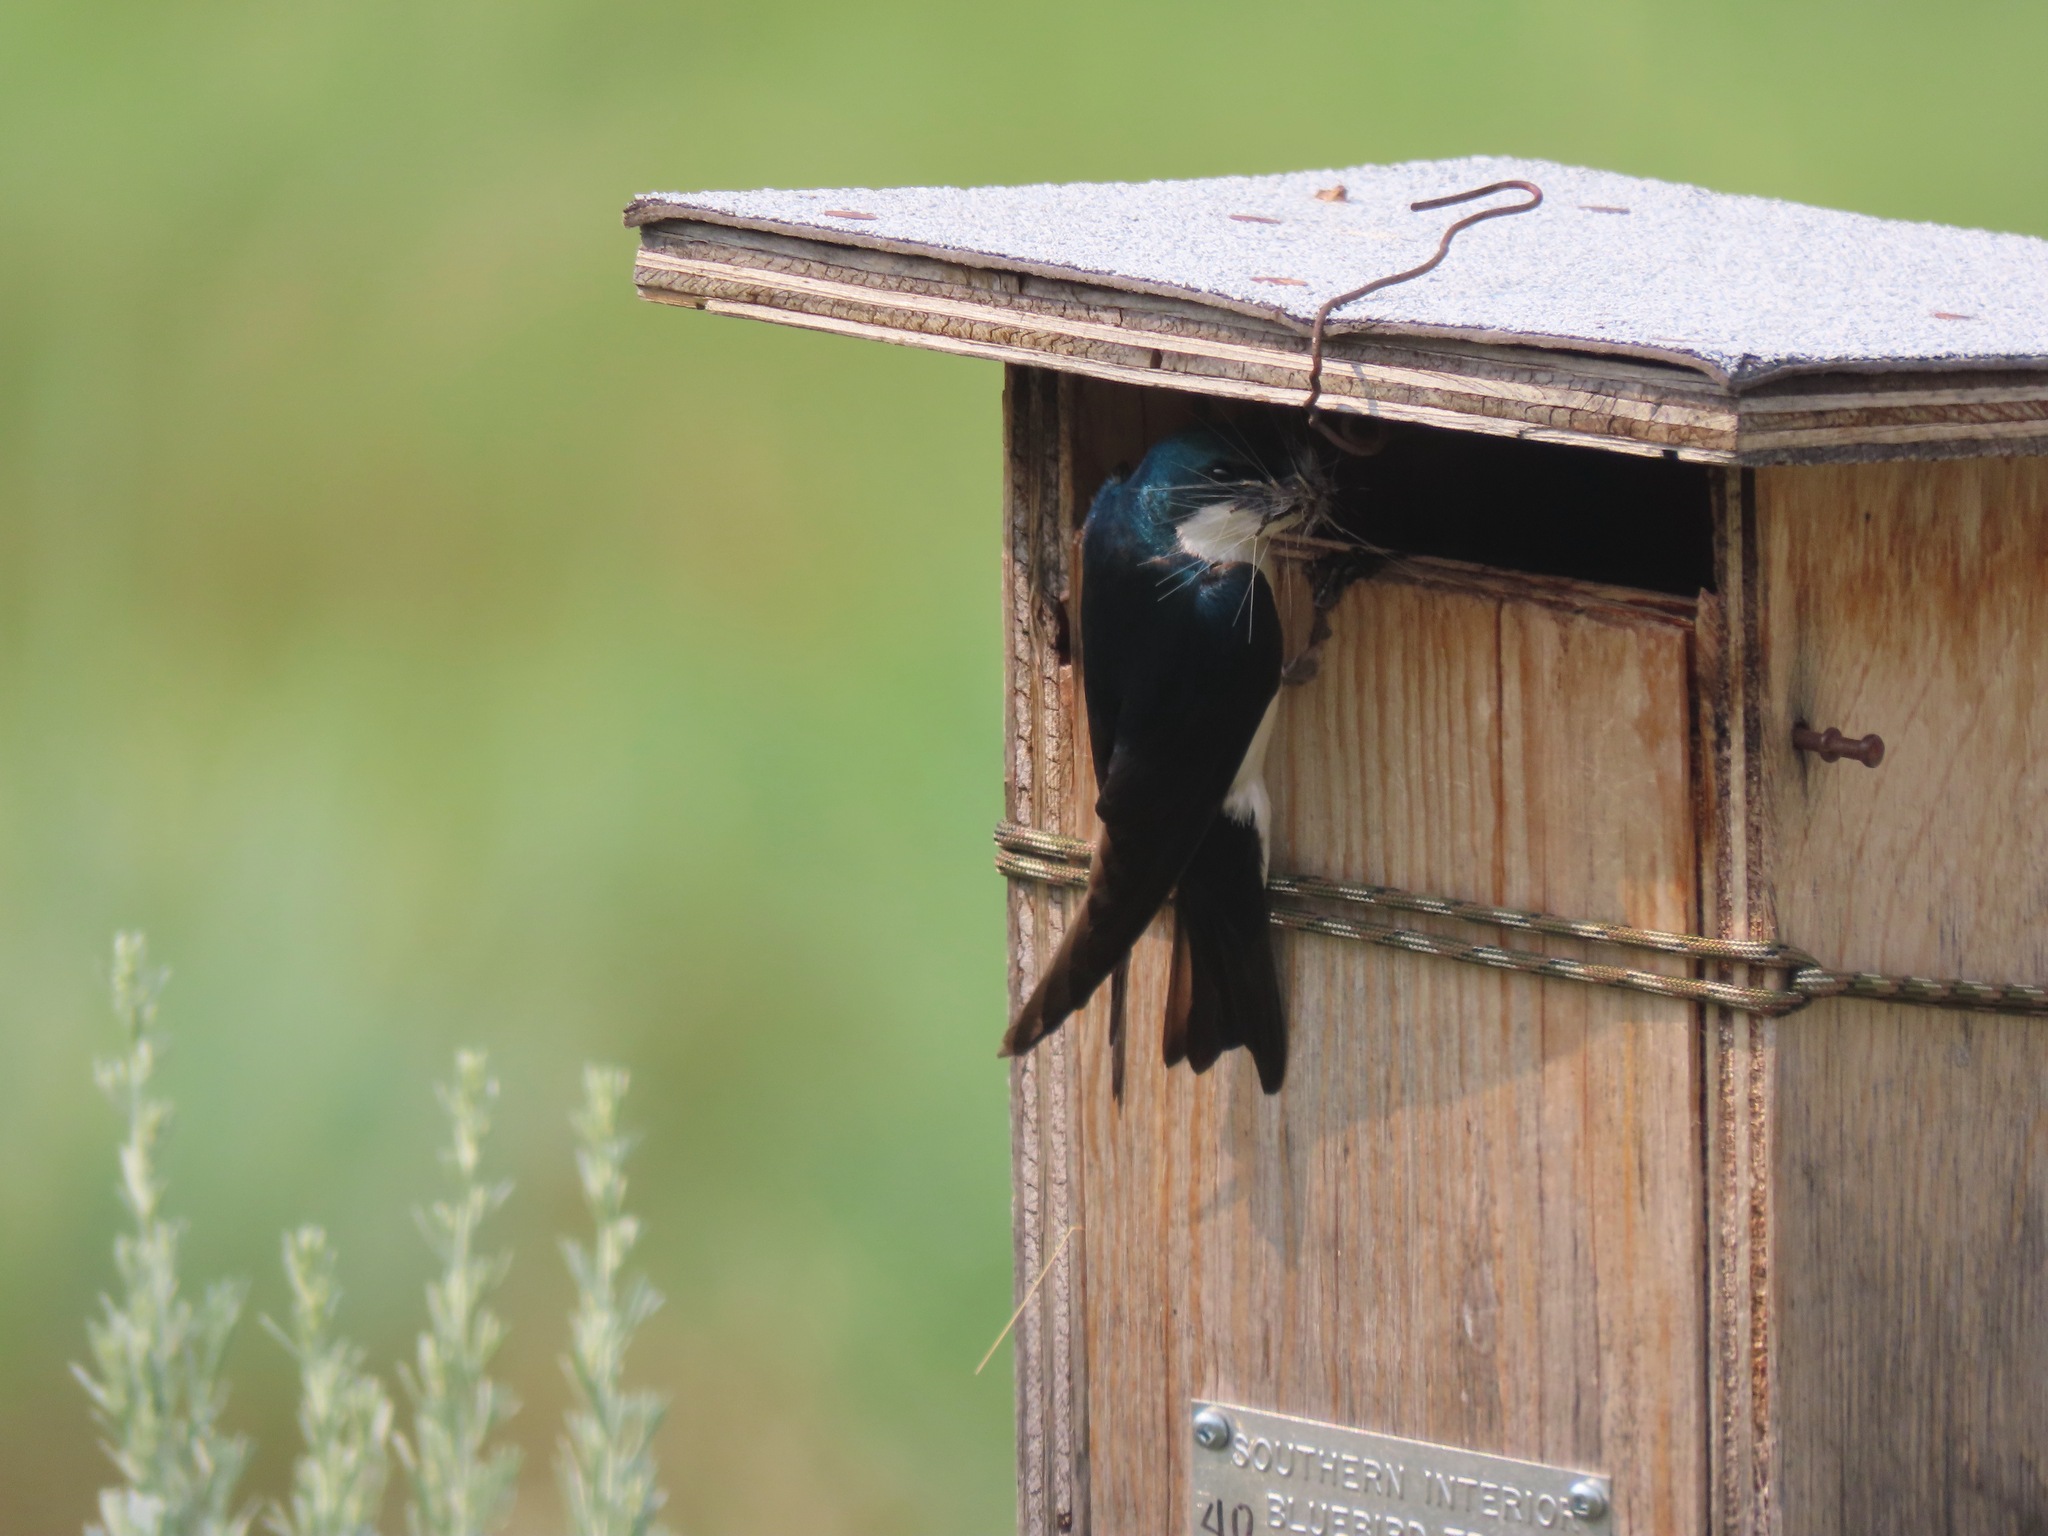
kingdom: Animalia
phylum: Chordata
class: Aves
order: Passeriformes
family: Hirundinidae
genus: Tachycineta
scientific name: Tachycineta bicolor
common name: Tree swallow
